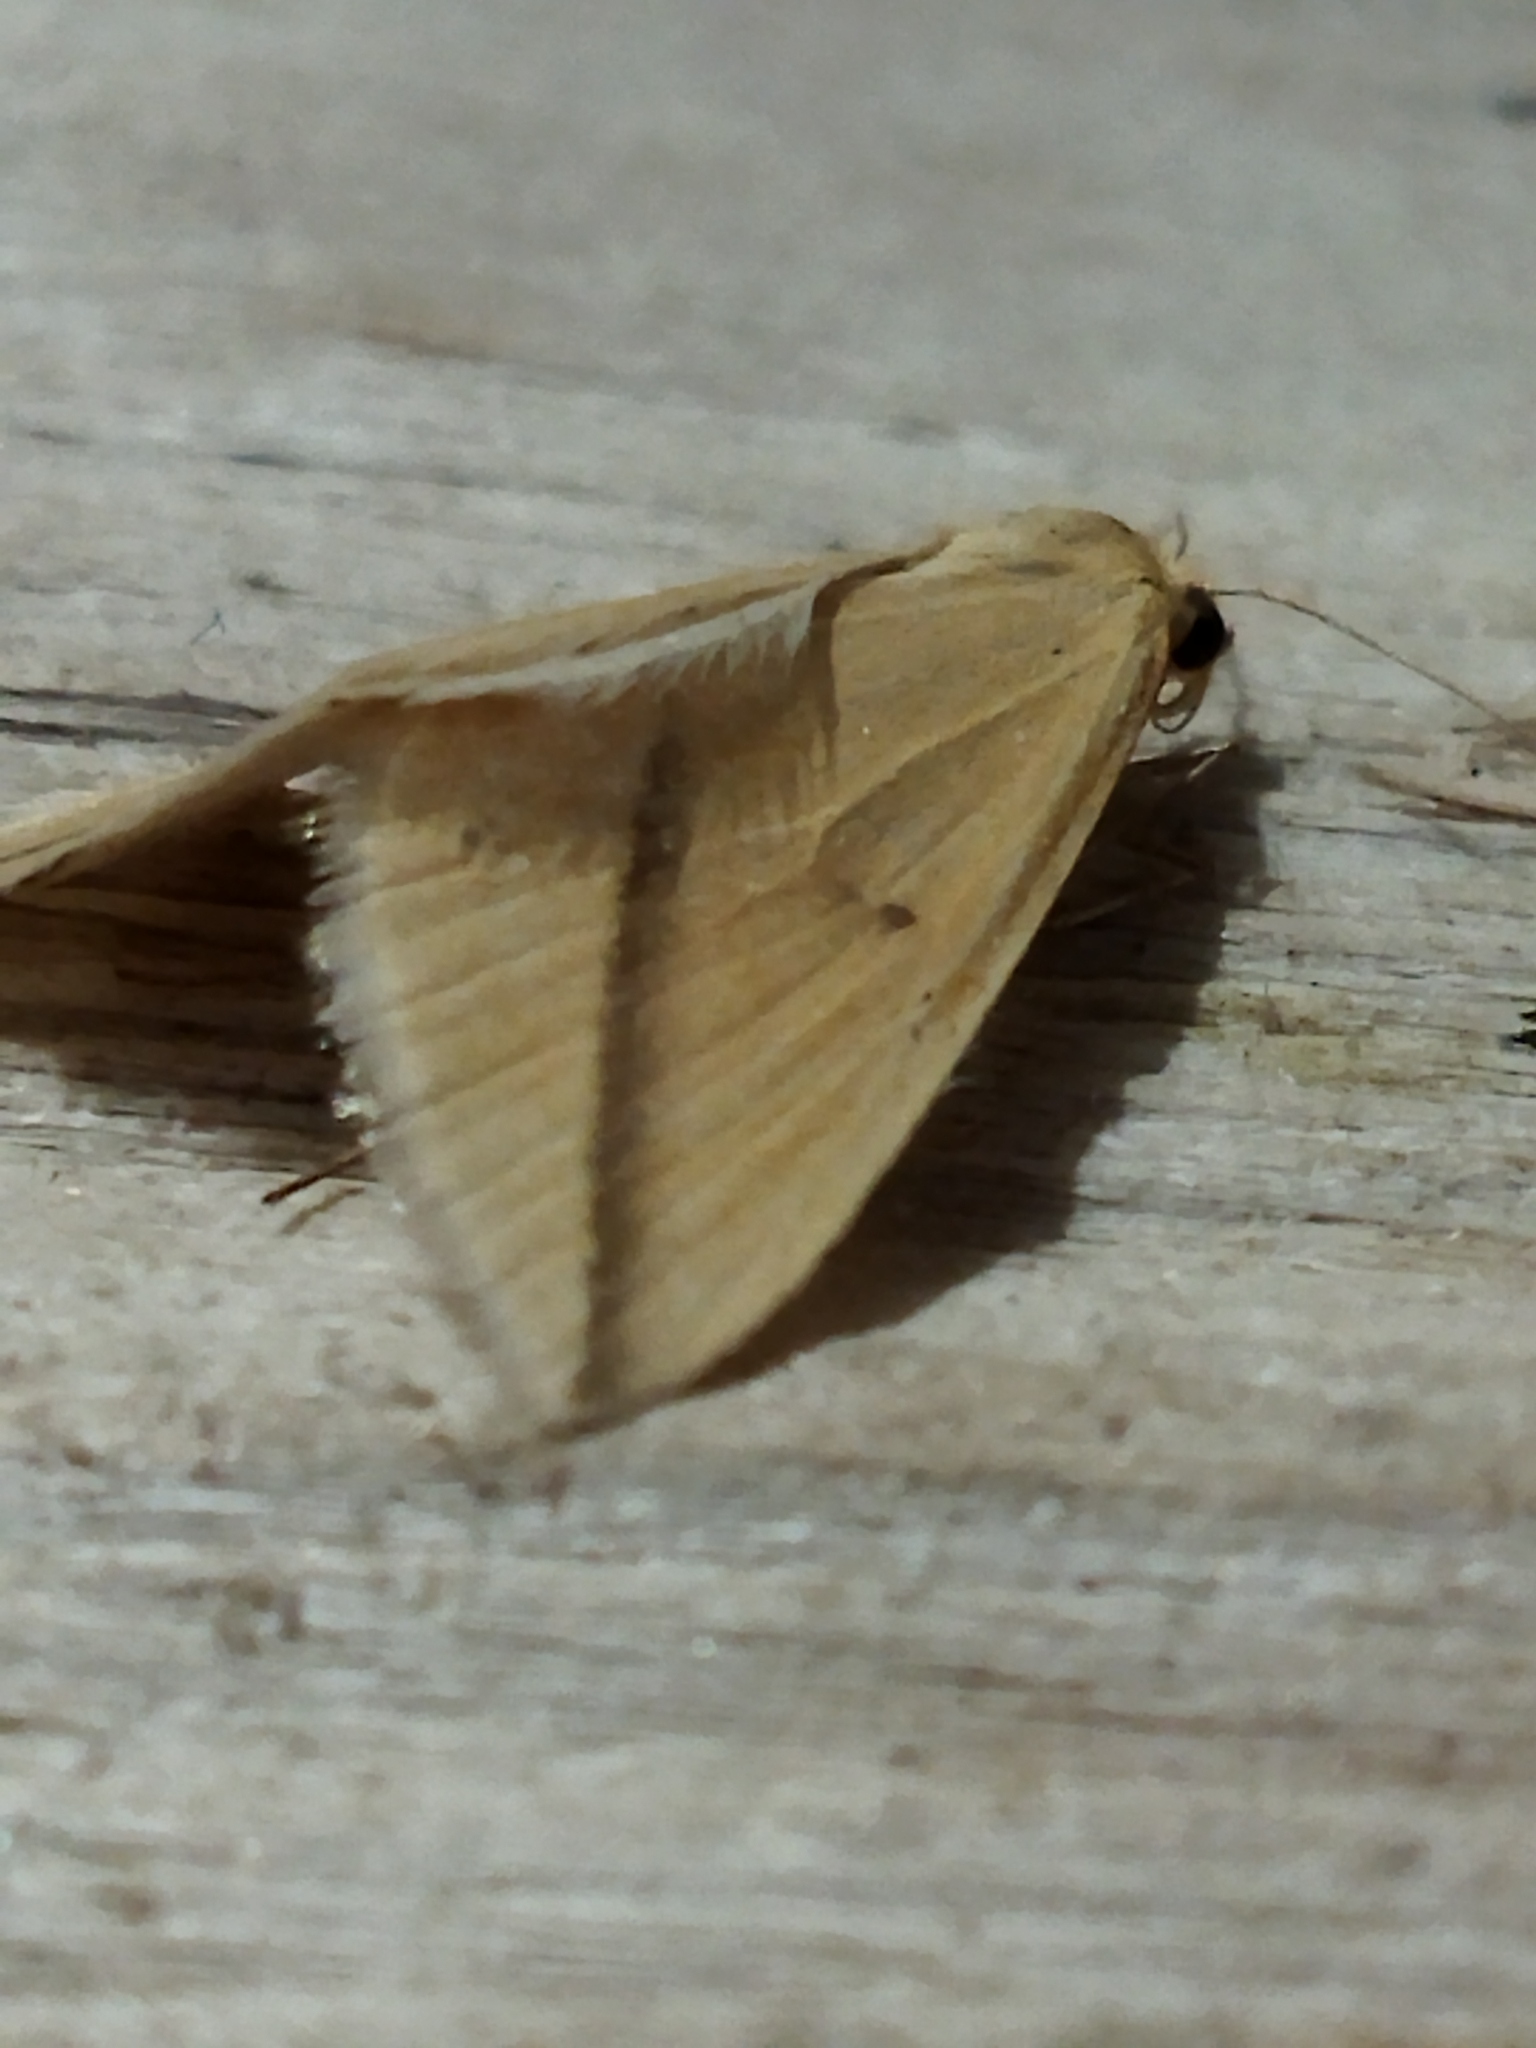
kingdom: Animalia
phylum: Arthropoda
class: Insecta
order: Lepidoptera
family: Geometridae
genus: Rhodometra
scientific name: Rhodometra sacraria
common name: Vestal
